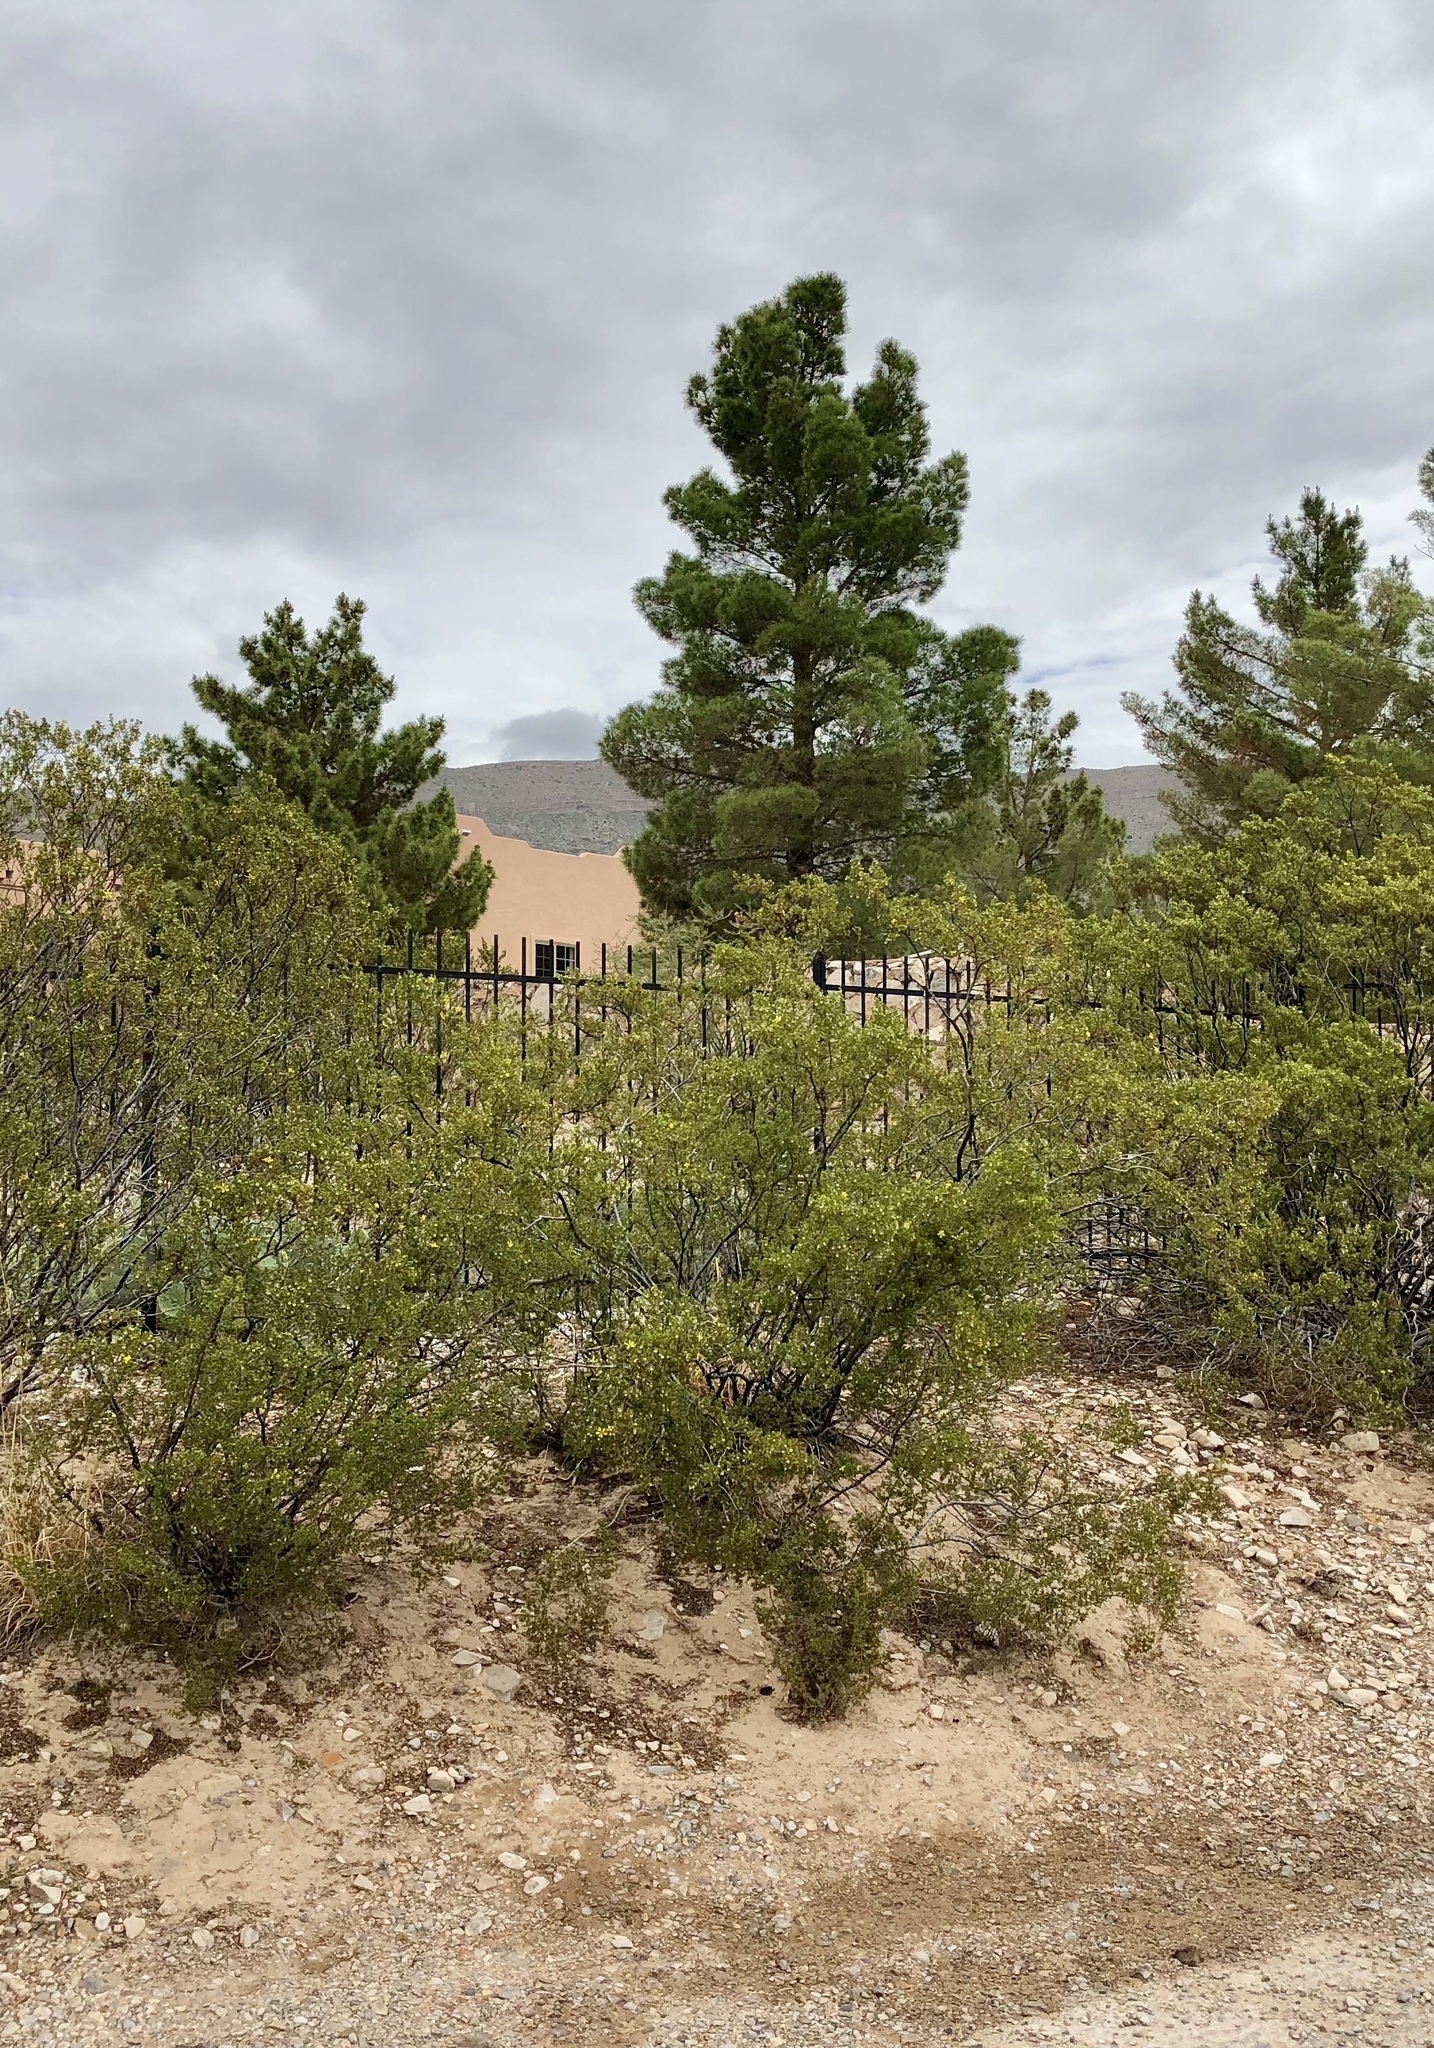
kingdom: Plantae
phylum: Tracheophyta
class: Magnoliopsida
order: Zygophyllales
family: Zygophyllaceae
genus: Larrea
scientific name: Larrea tridentata
